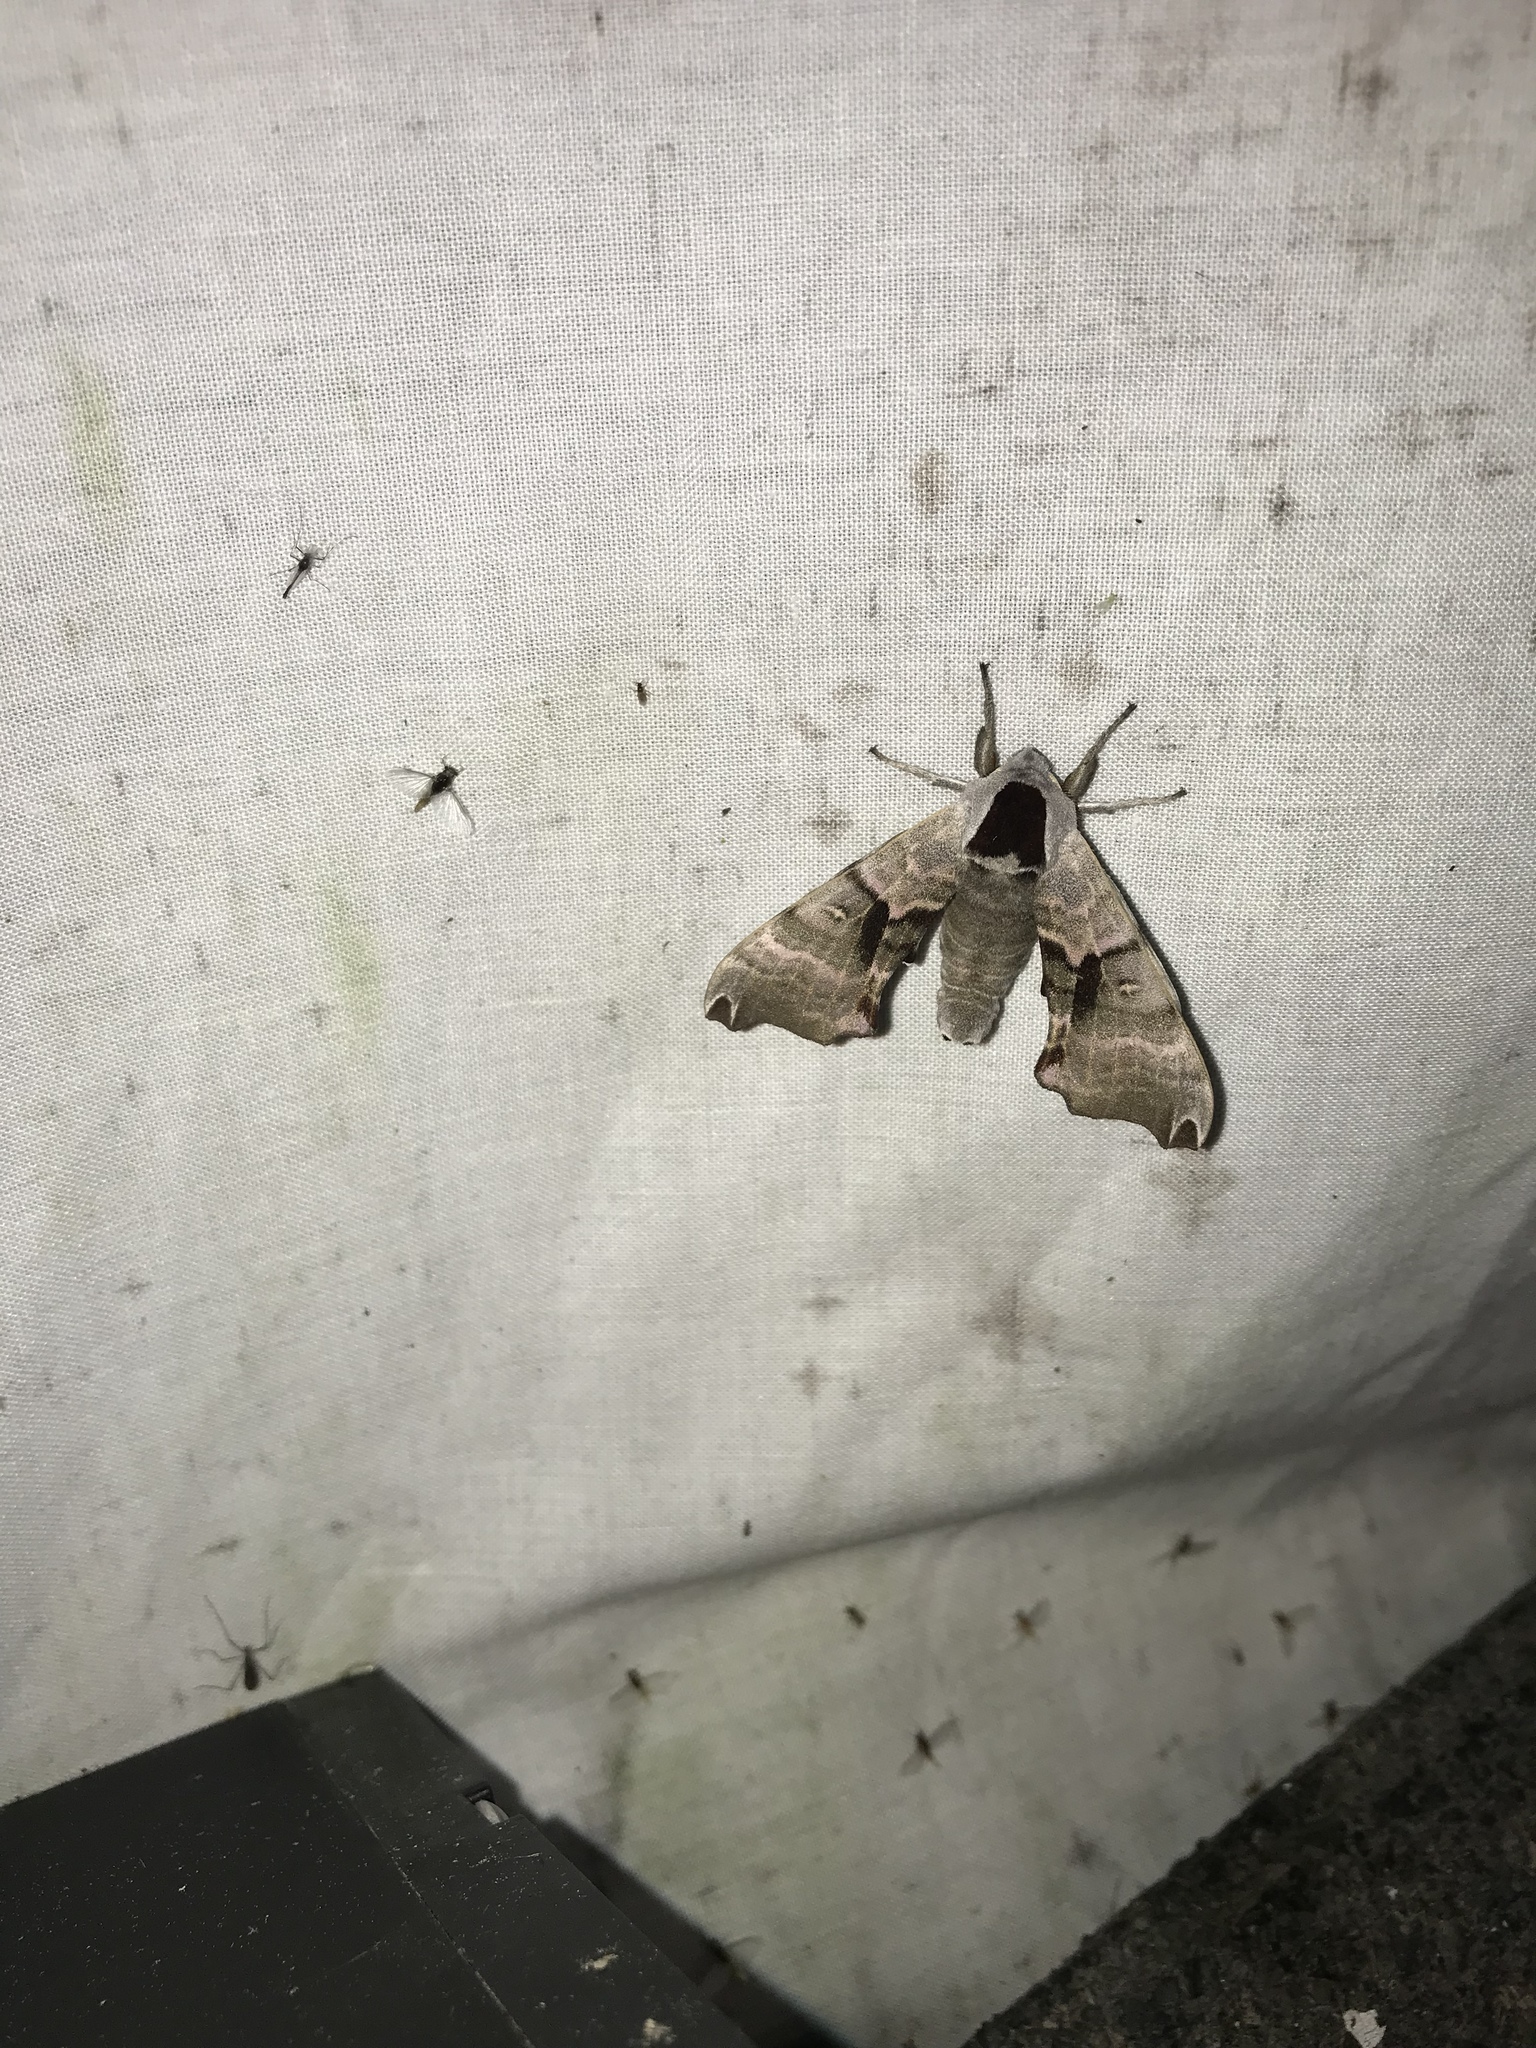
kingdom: Animalia
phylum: Arthropoda
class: Insecta
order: Lepidoptera
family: Sphingidae
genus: Smerinthus
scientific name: Smerinthus jamaicensis
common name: Twin spotted sphinx
